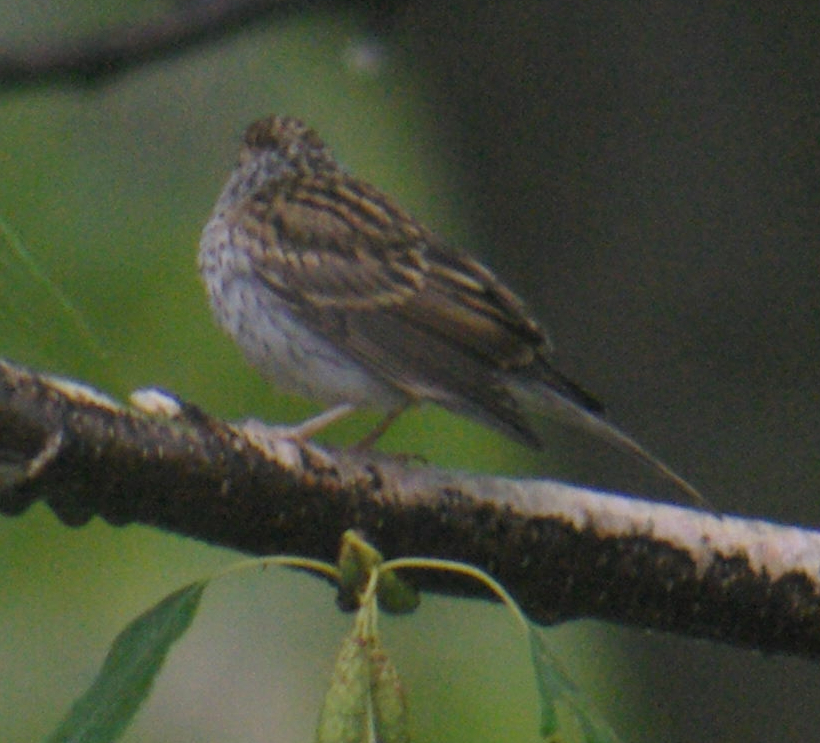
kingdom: Animalia
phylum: Chordata
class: Aves
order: Passeriformes
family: Passerellidae
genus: Spizella
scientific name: Spizella passerina
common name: Chipping sparrow
